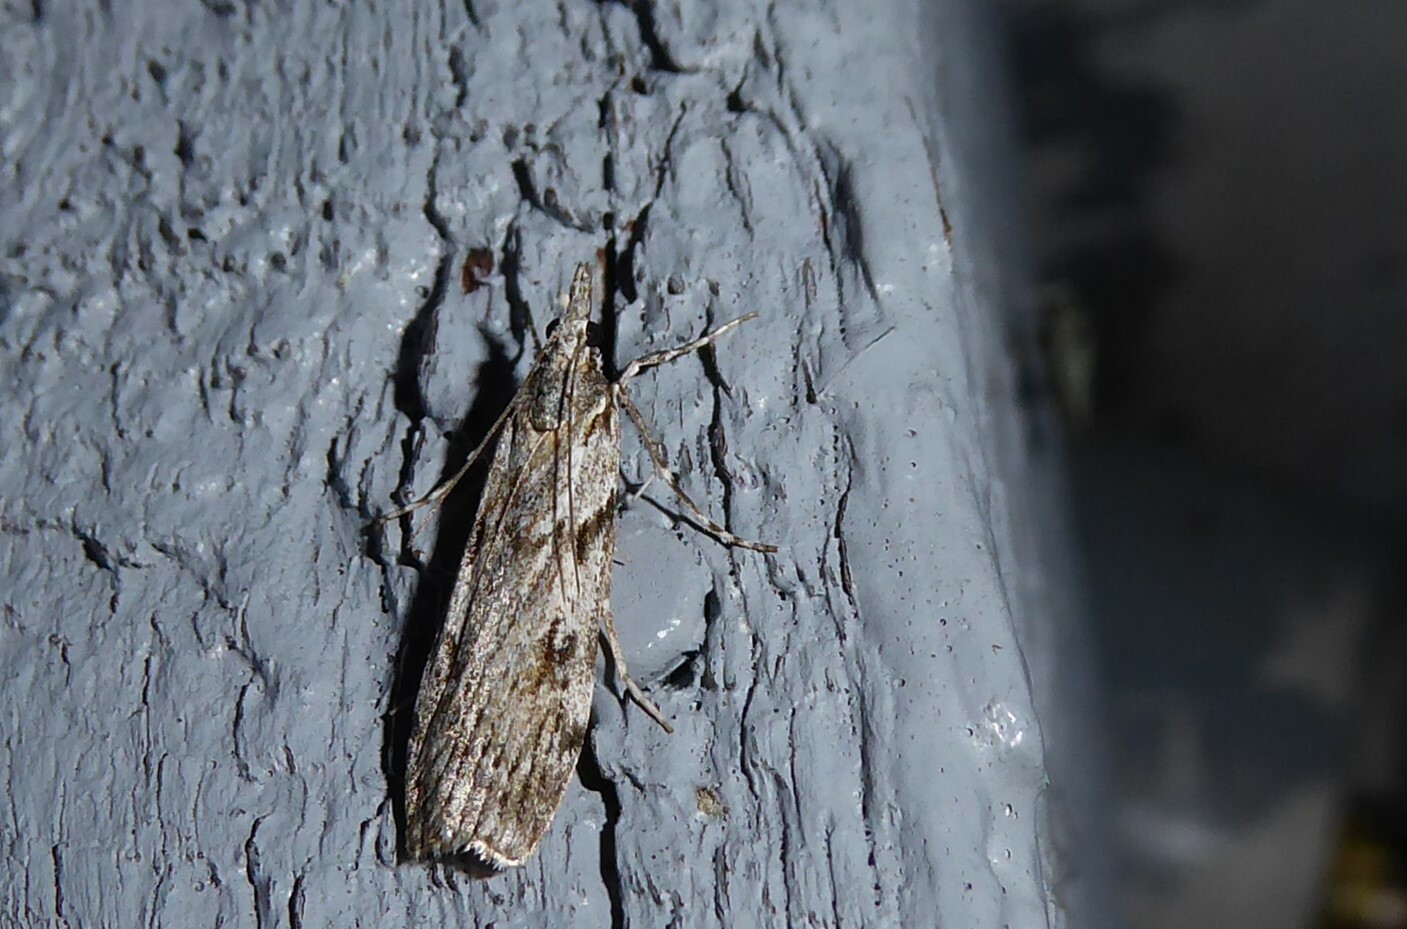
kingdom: Animalia
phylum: Arthropoda
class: Insecta
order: Lepidoptera
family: Crambidae
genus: Scoparia
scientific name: Scoparia halopis
